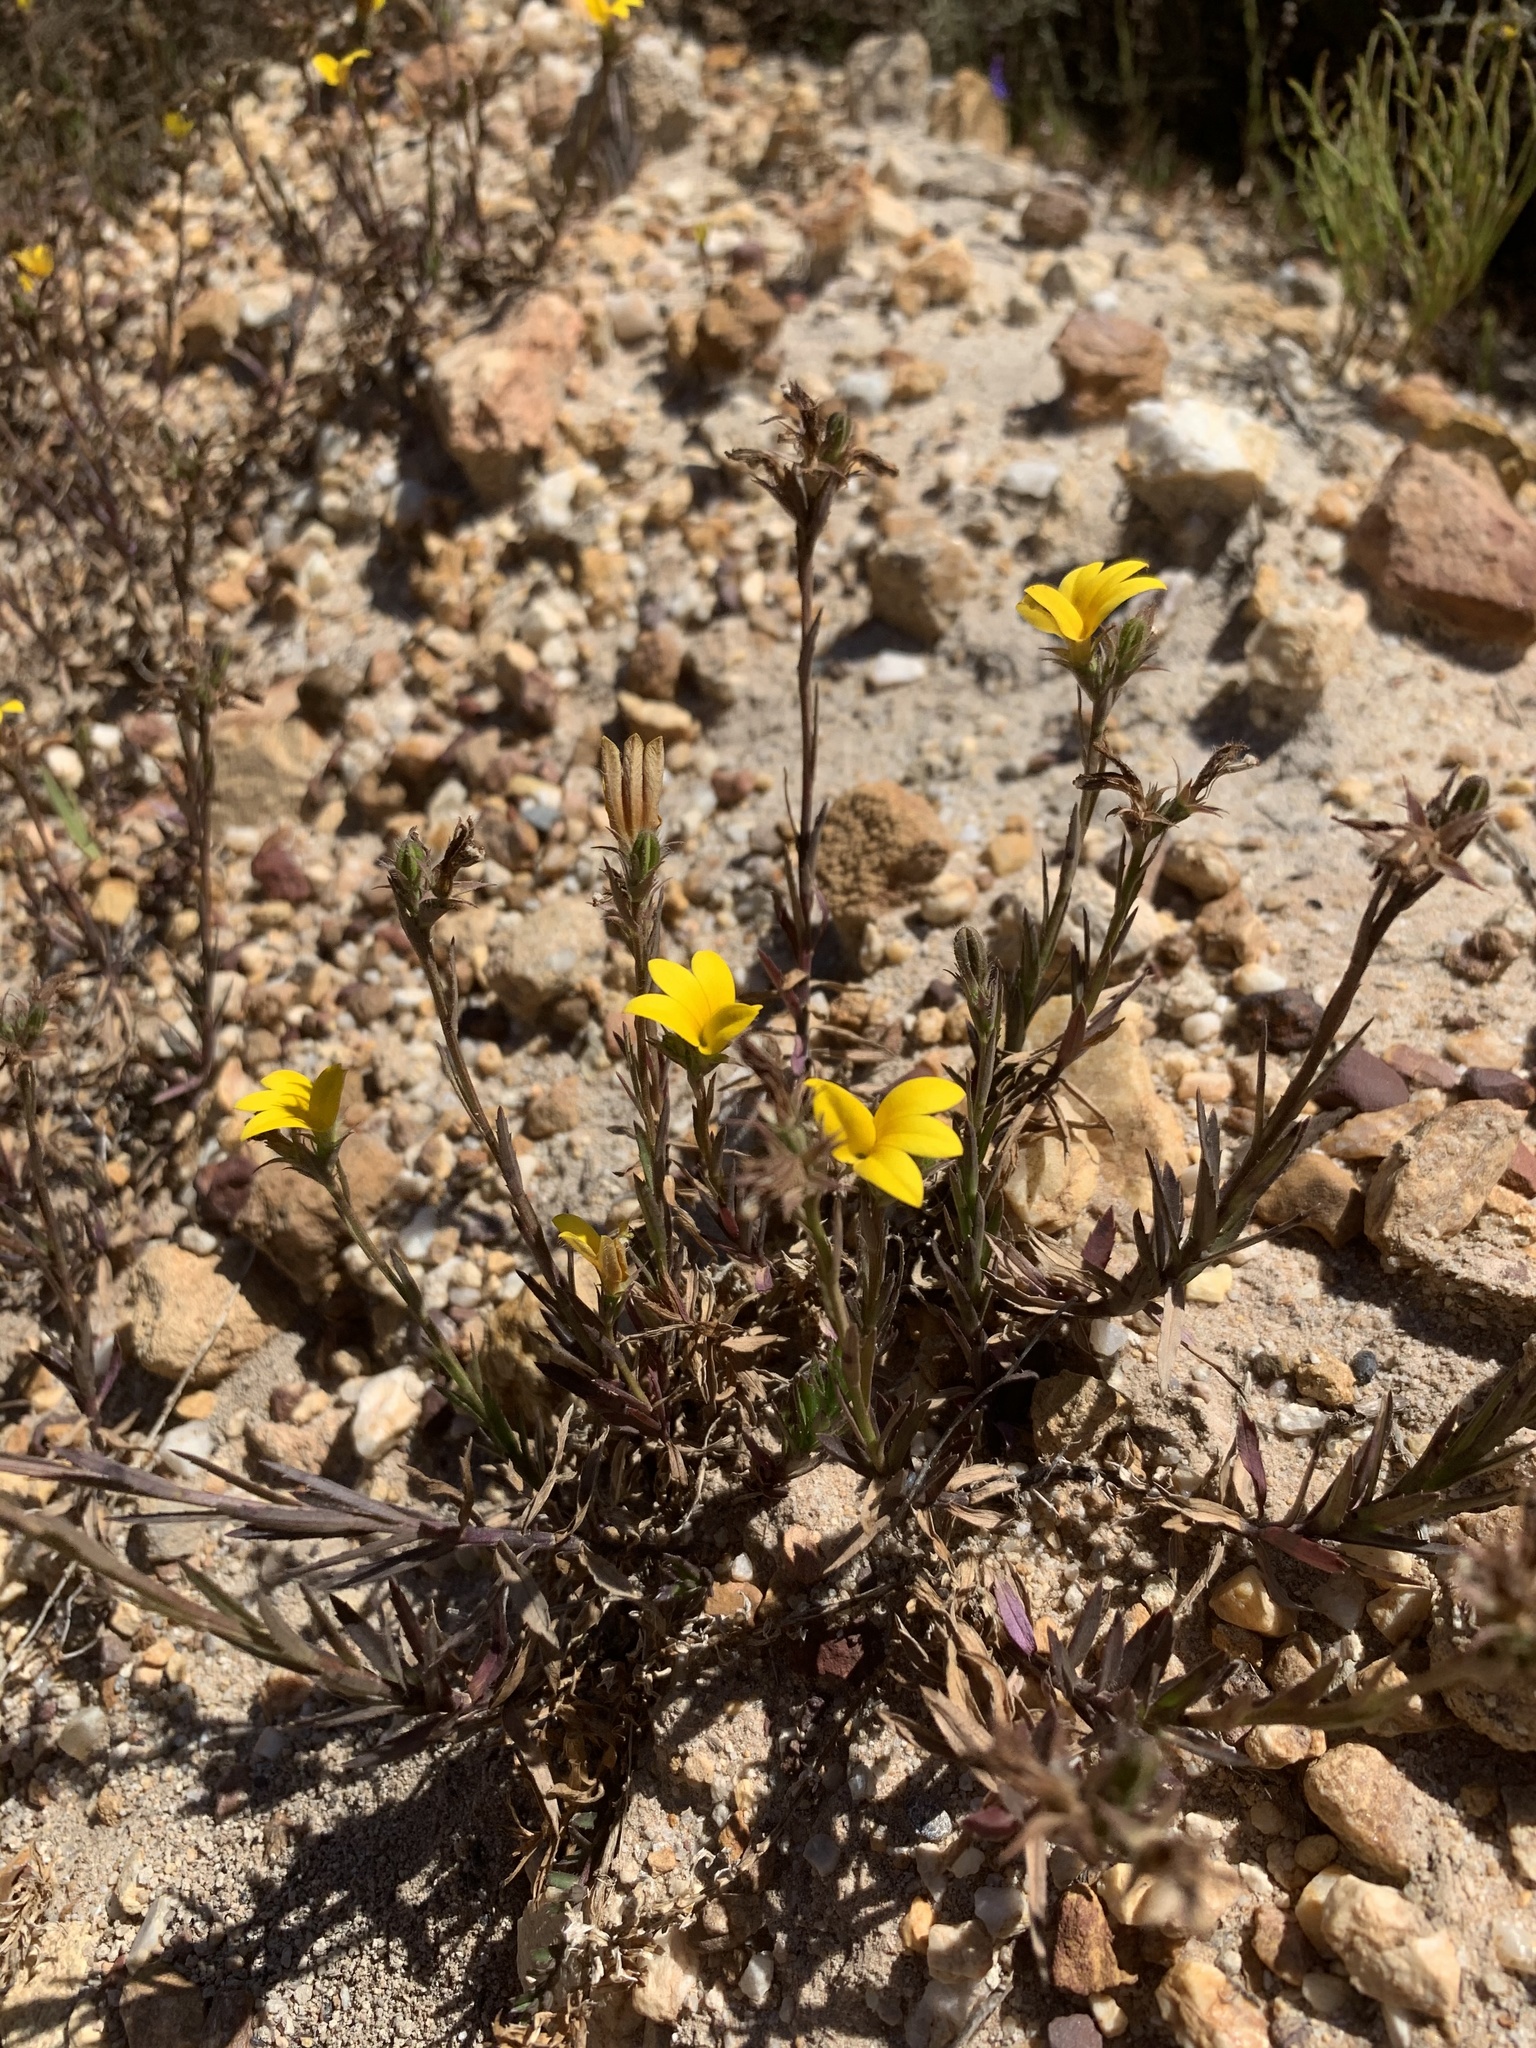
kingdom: Plantae
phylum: Tracheophyta
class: Magnoliopsida
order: Asterales
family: Campanulaceae
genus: Monopsis
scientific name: Monopsis lutea
